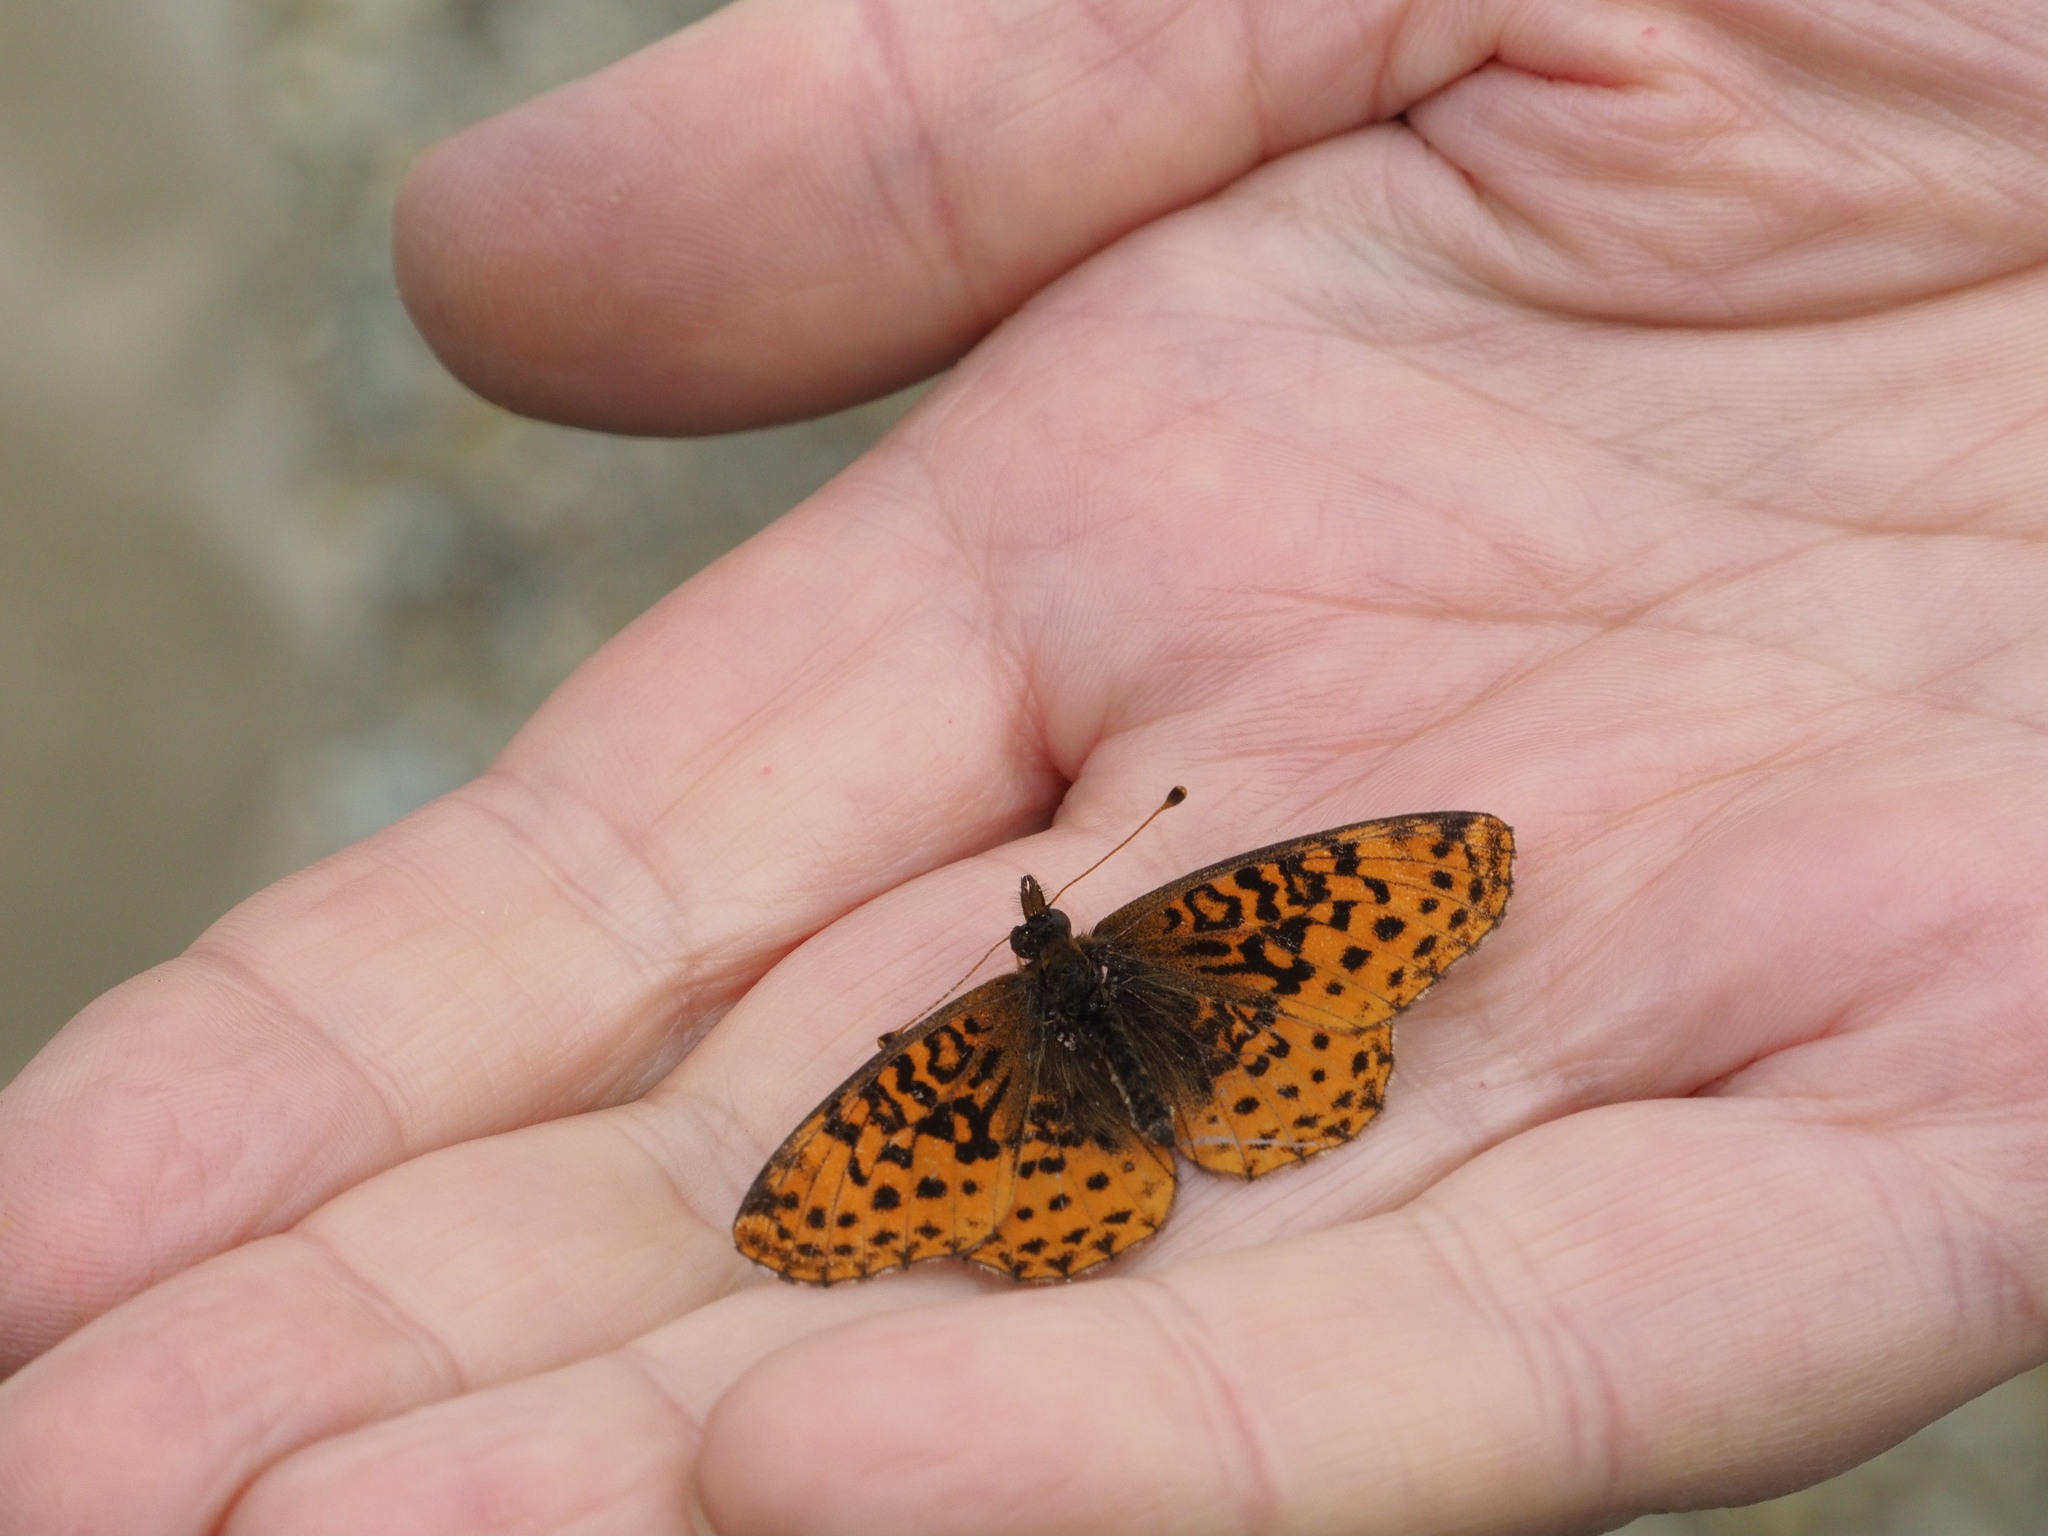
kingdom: Animalia
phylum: Arthropoda
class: Insecta
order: Lepidoptera
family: Nymphalidae
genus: Clossiana
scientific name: Clossiana toddi
